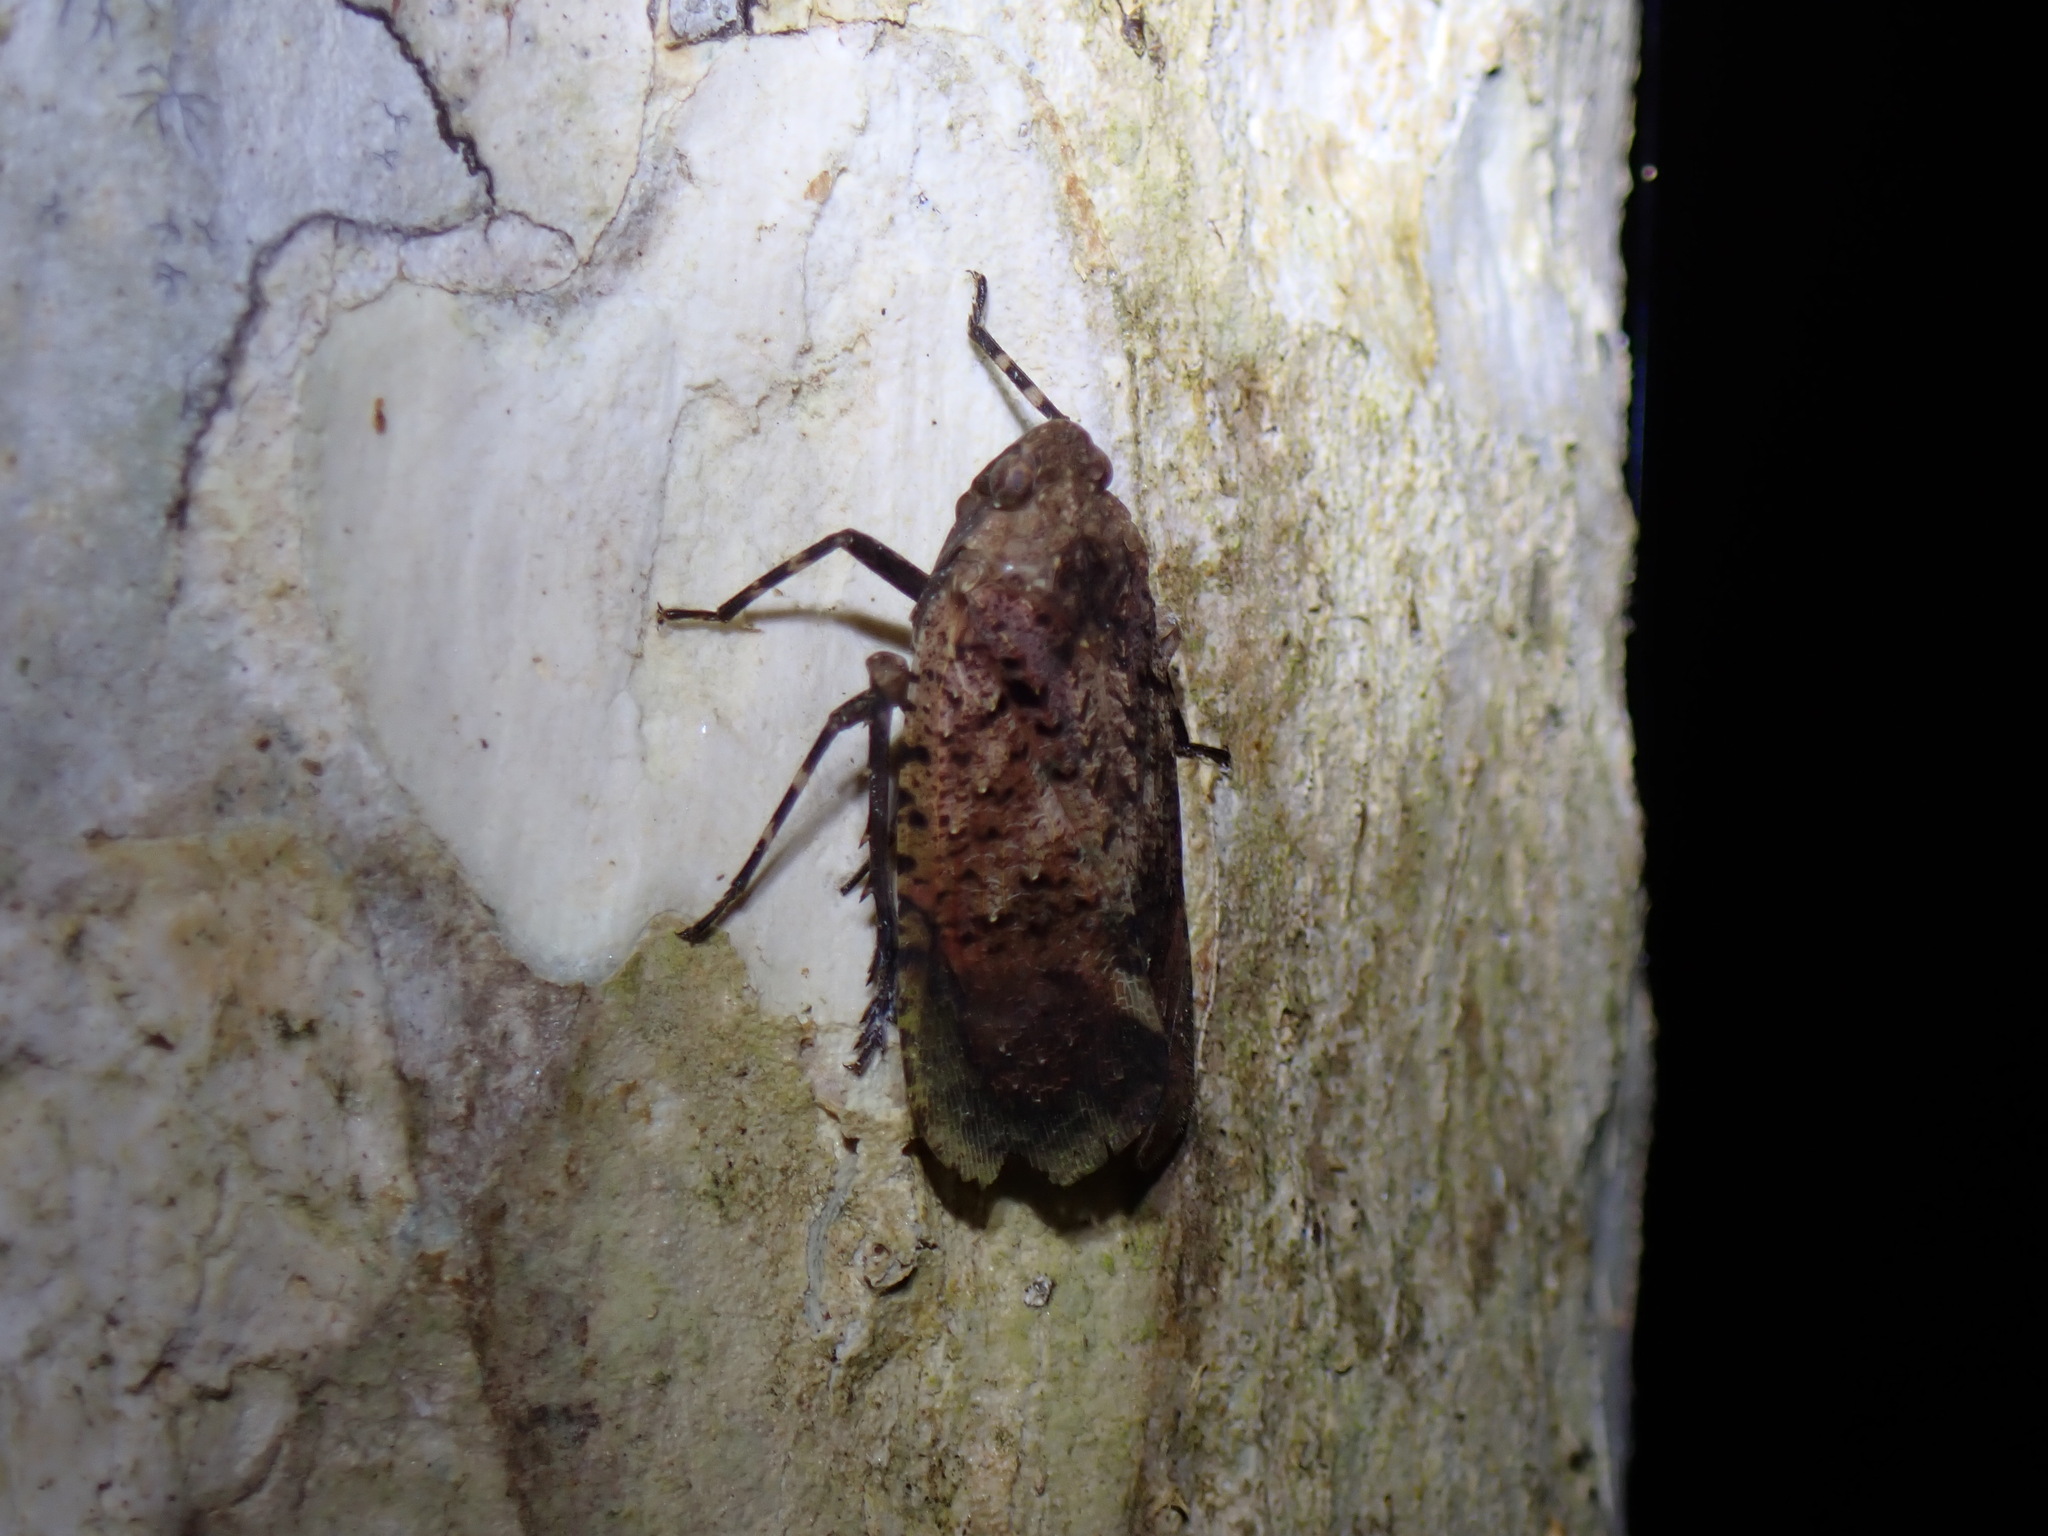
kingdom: Animalia
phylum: Arthropoda
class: Insecta
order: Hemiptera
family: Fulgoridae
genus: Penthicodes
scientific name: Penthicodes pulchella
